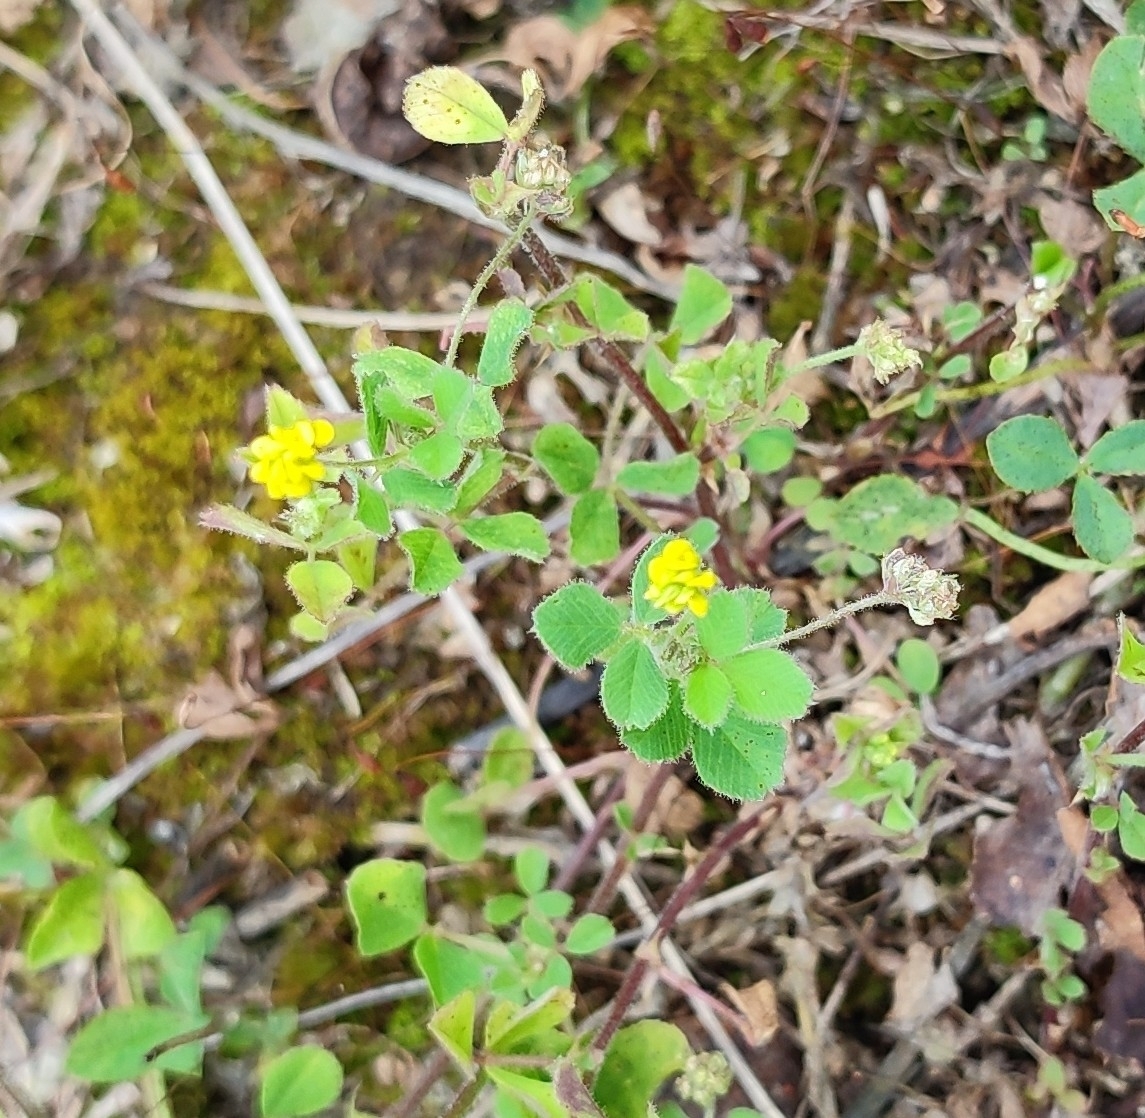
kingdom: Plantae
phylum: Tracheophyta
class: Magnoliopsida
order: Fabales
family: Fabaceae
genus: Medicago
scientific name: Medicago lupulina
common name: Black medick
